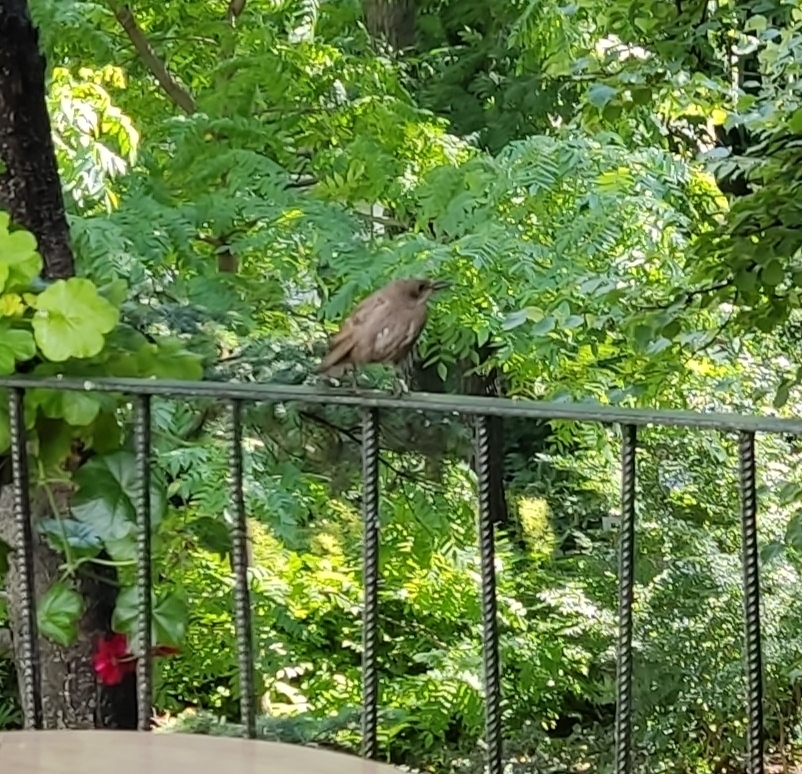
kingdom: Animalia
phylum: Chordata
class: Aves
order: Passeriformes
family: Sturnidae
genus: Sturnus
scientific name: Sturnus vulgaris
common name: Common starling
